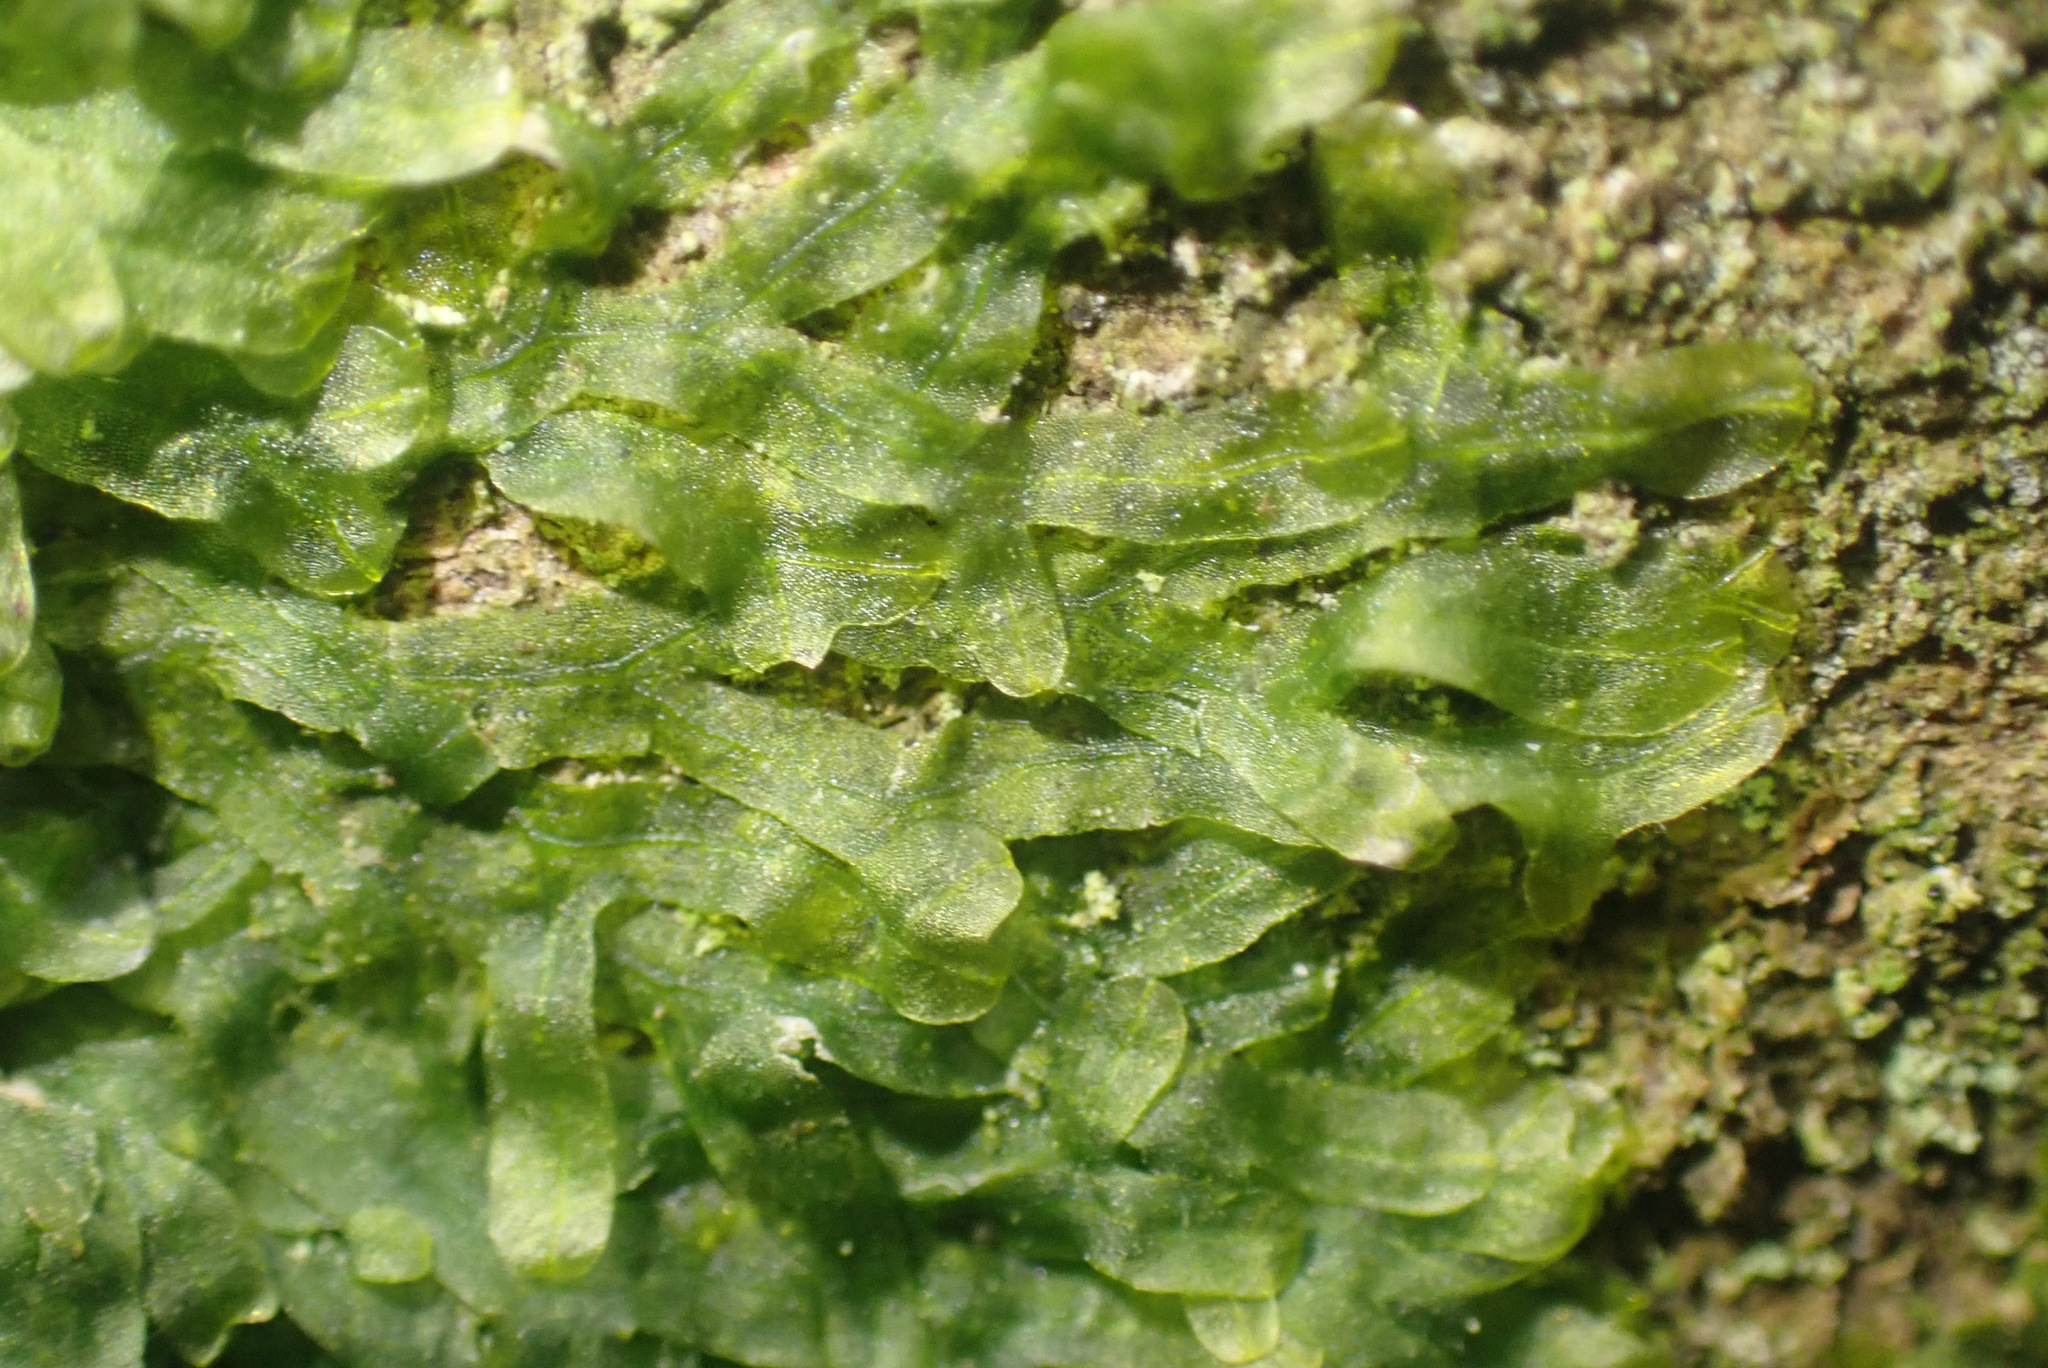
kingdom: Plantae
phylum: Marchantiophyta
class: Jungermanniopsida
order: Metzgeriales
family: Metzgeriaceae
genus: Metzgeria
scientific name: Metzgeria furcata
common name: Forked veilwort
